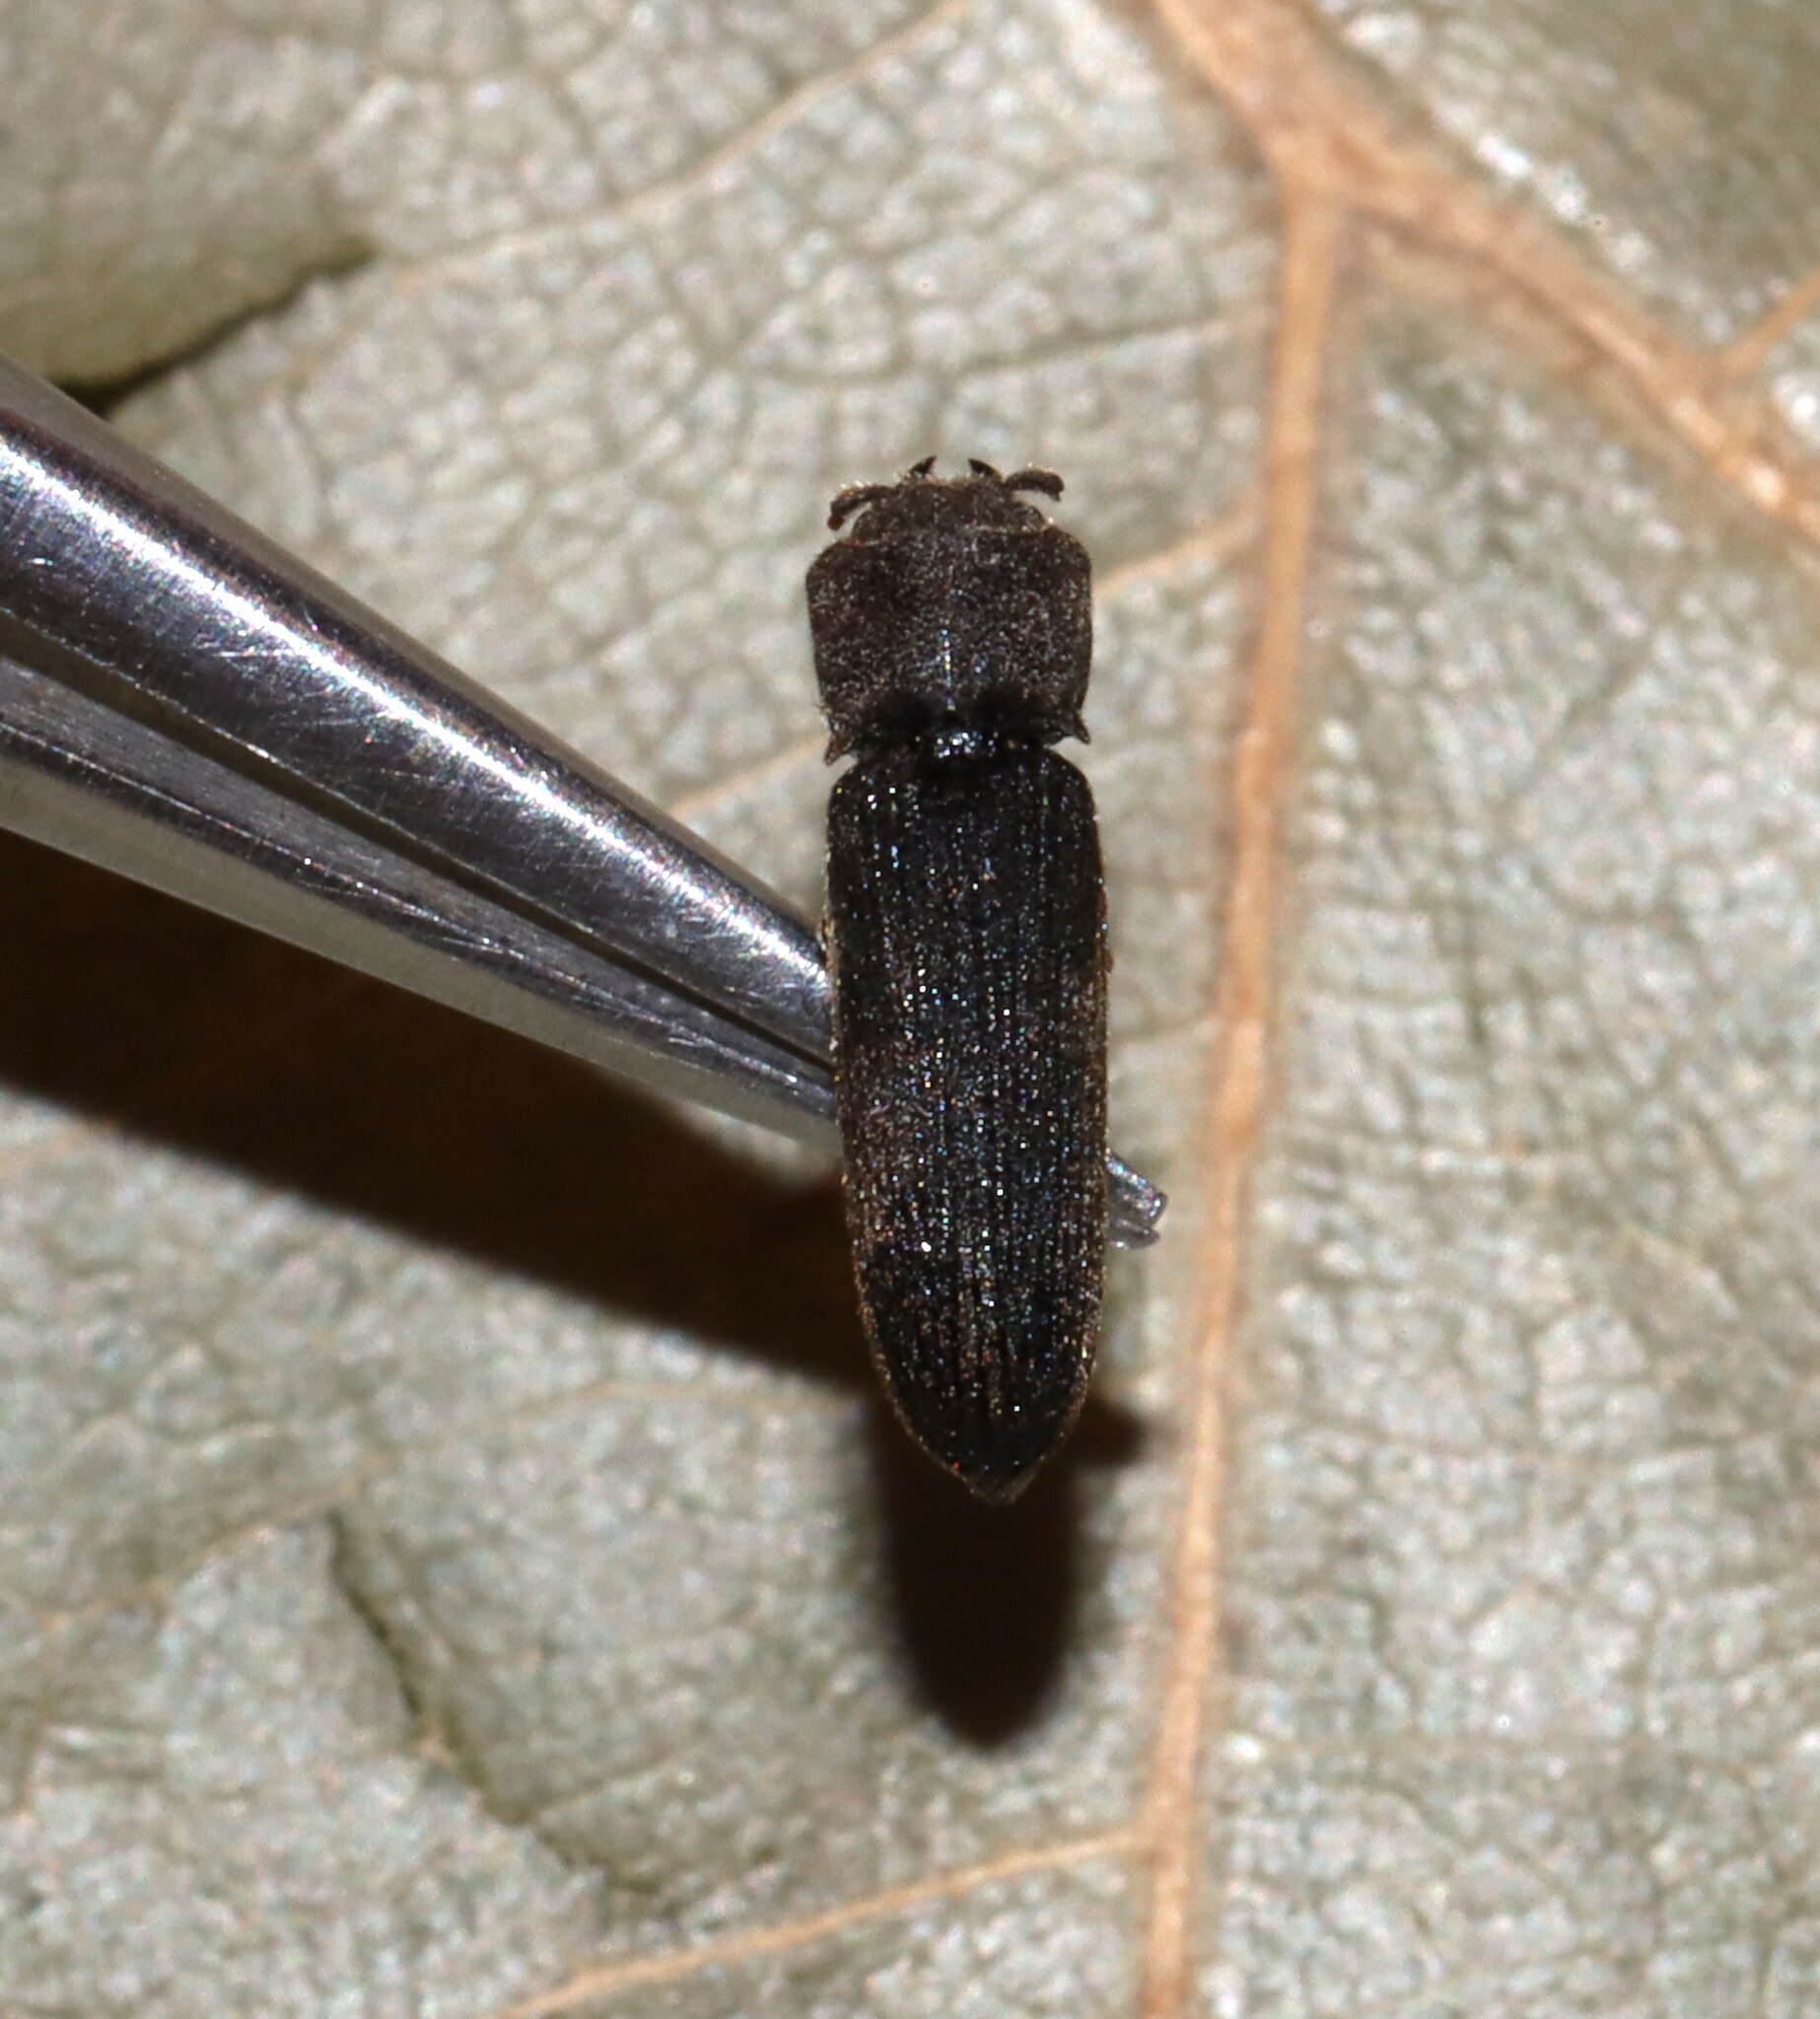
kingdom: Animalia
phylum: Arthropoda
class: Insecta
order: Coleoptera
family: Eucnemidae
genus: Melasis
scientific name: Melasis
